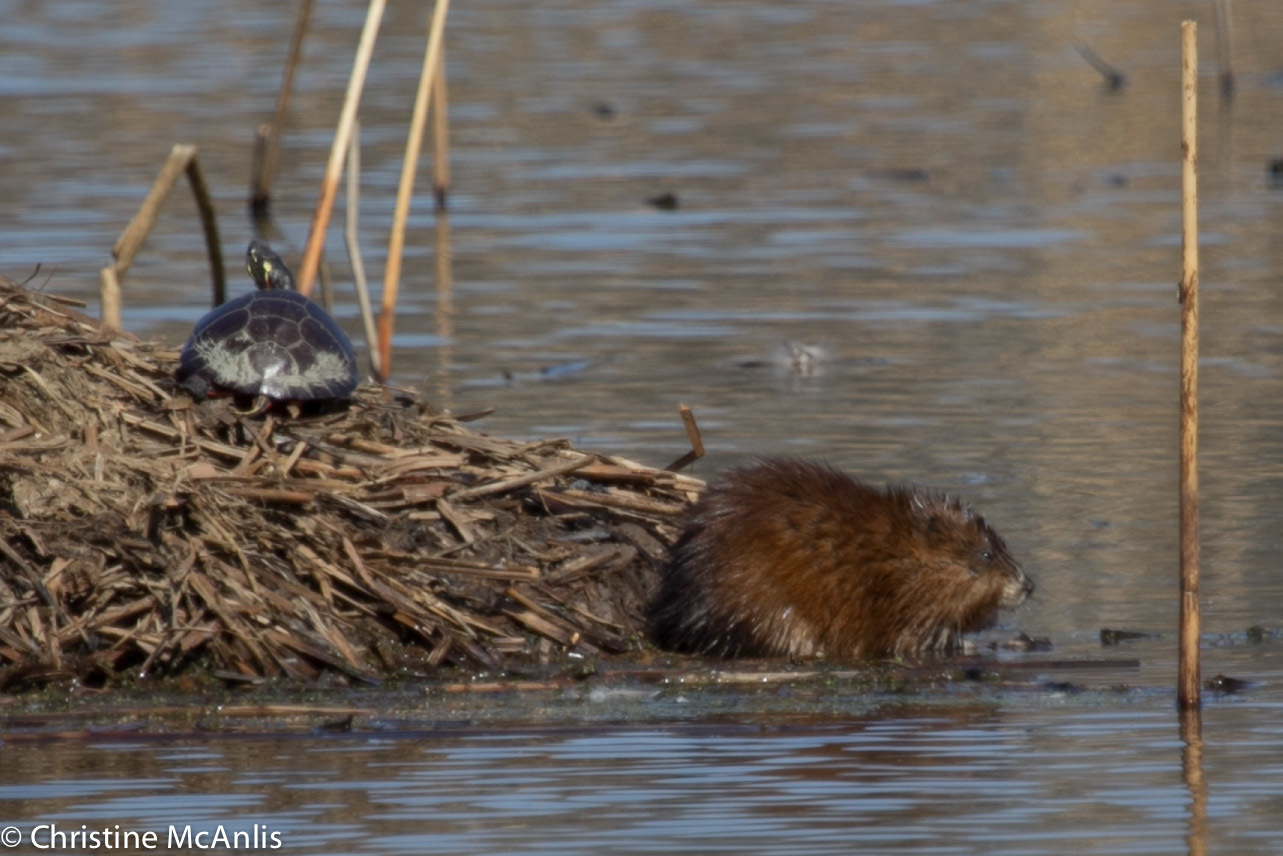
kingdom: Animalia
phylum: Chordata
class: Mammalia
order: Rodentia
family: Cricetidae
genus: Ondatra
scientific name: Ondatra zibethicus
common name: Muskrat
